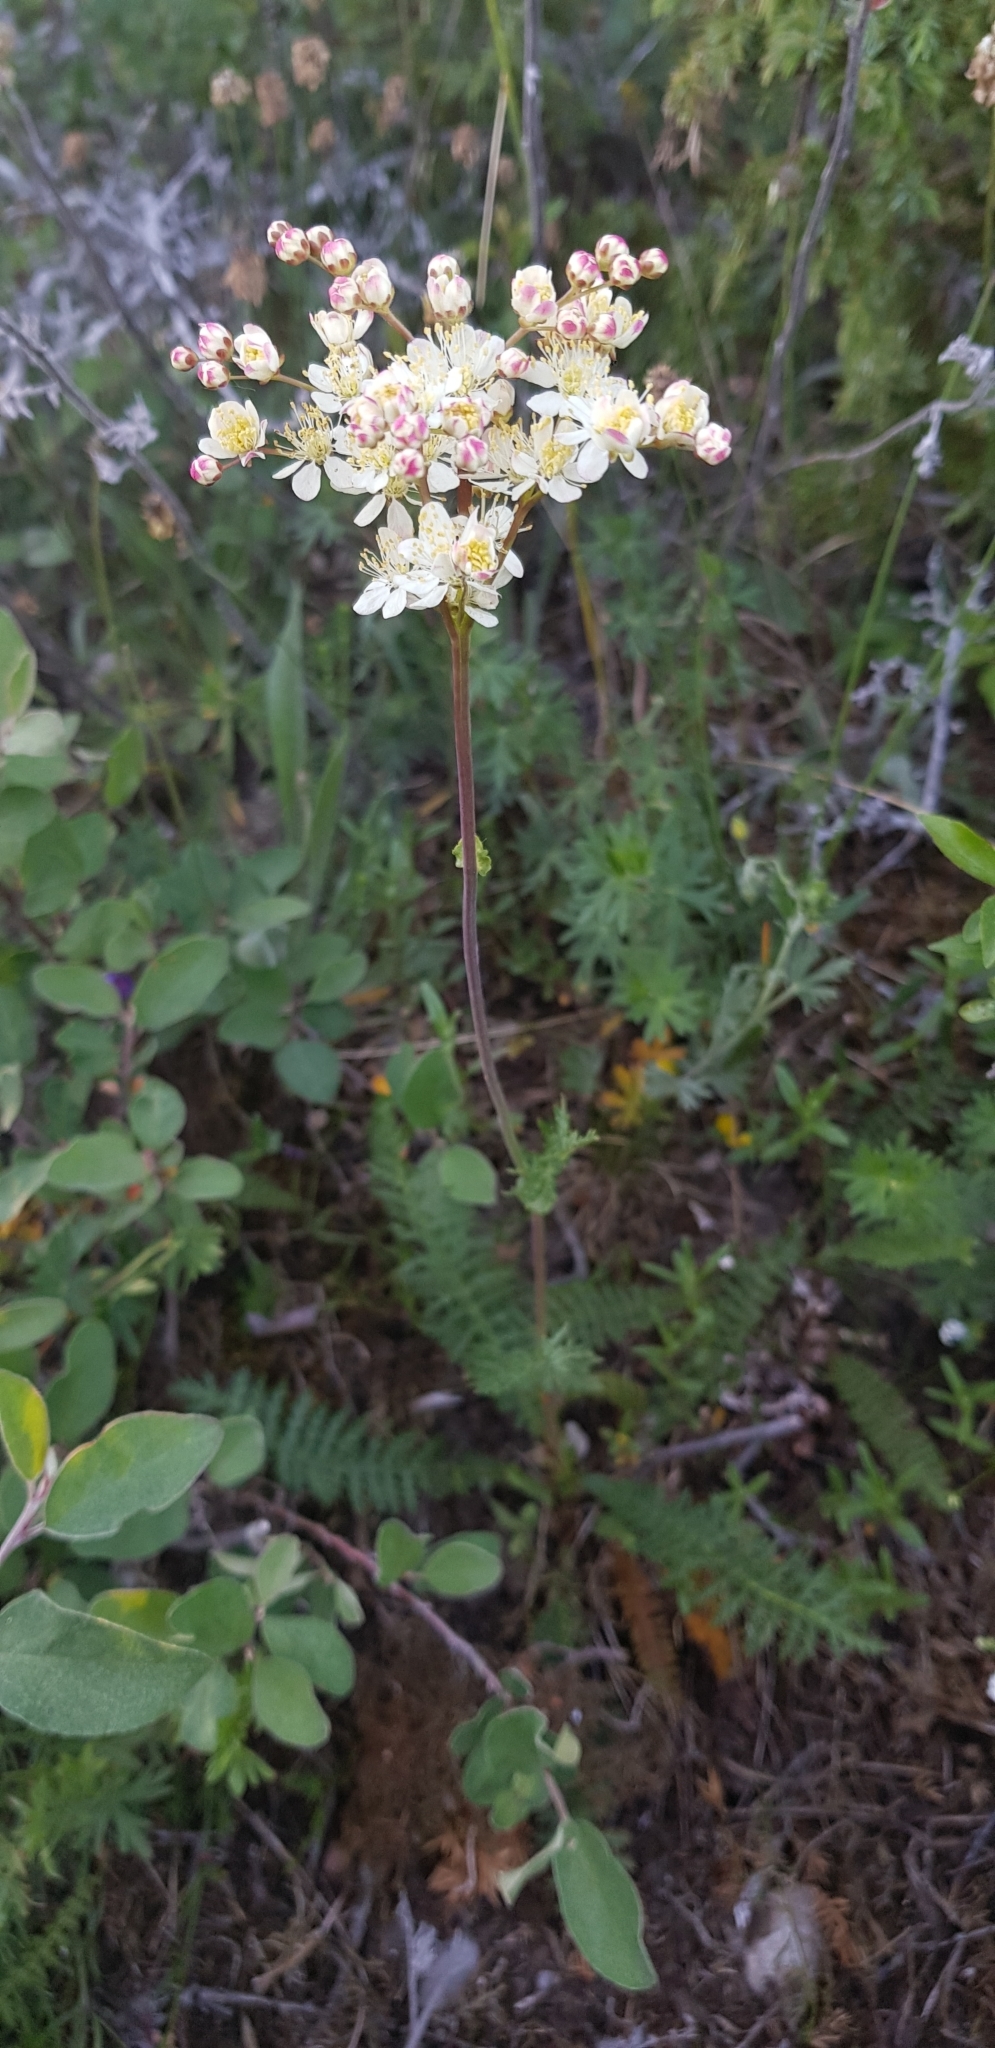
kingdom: Plantae
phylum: Tracheophyta
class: Magnoliopsida
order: Rosales
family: Rosaceae
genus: Filipendula
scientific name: Filipendula vulgaris
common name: Dropwort
